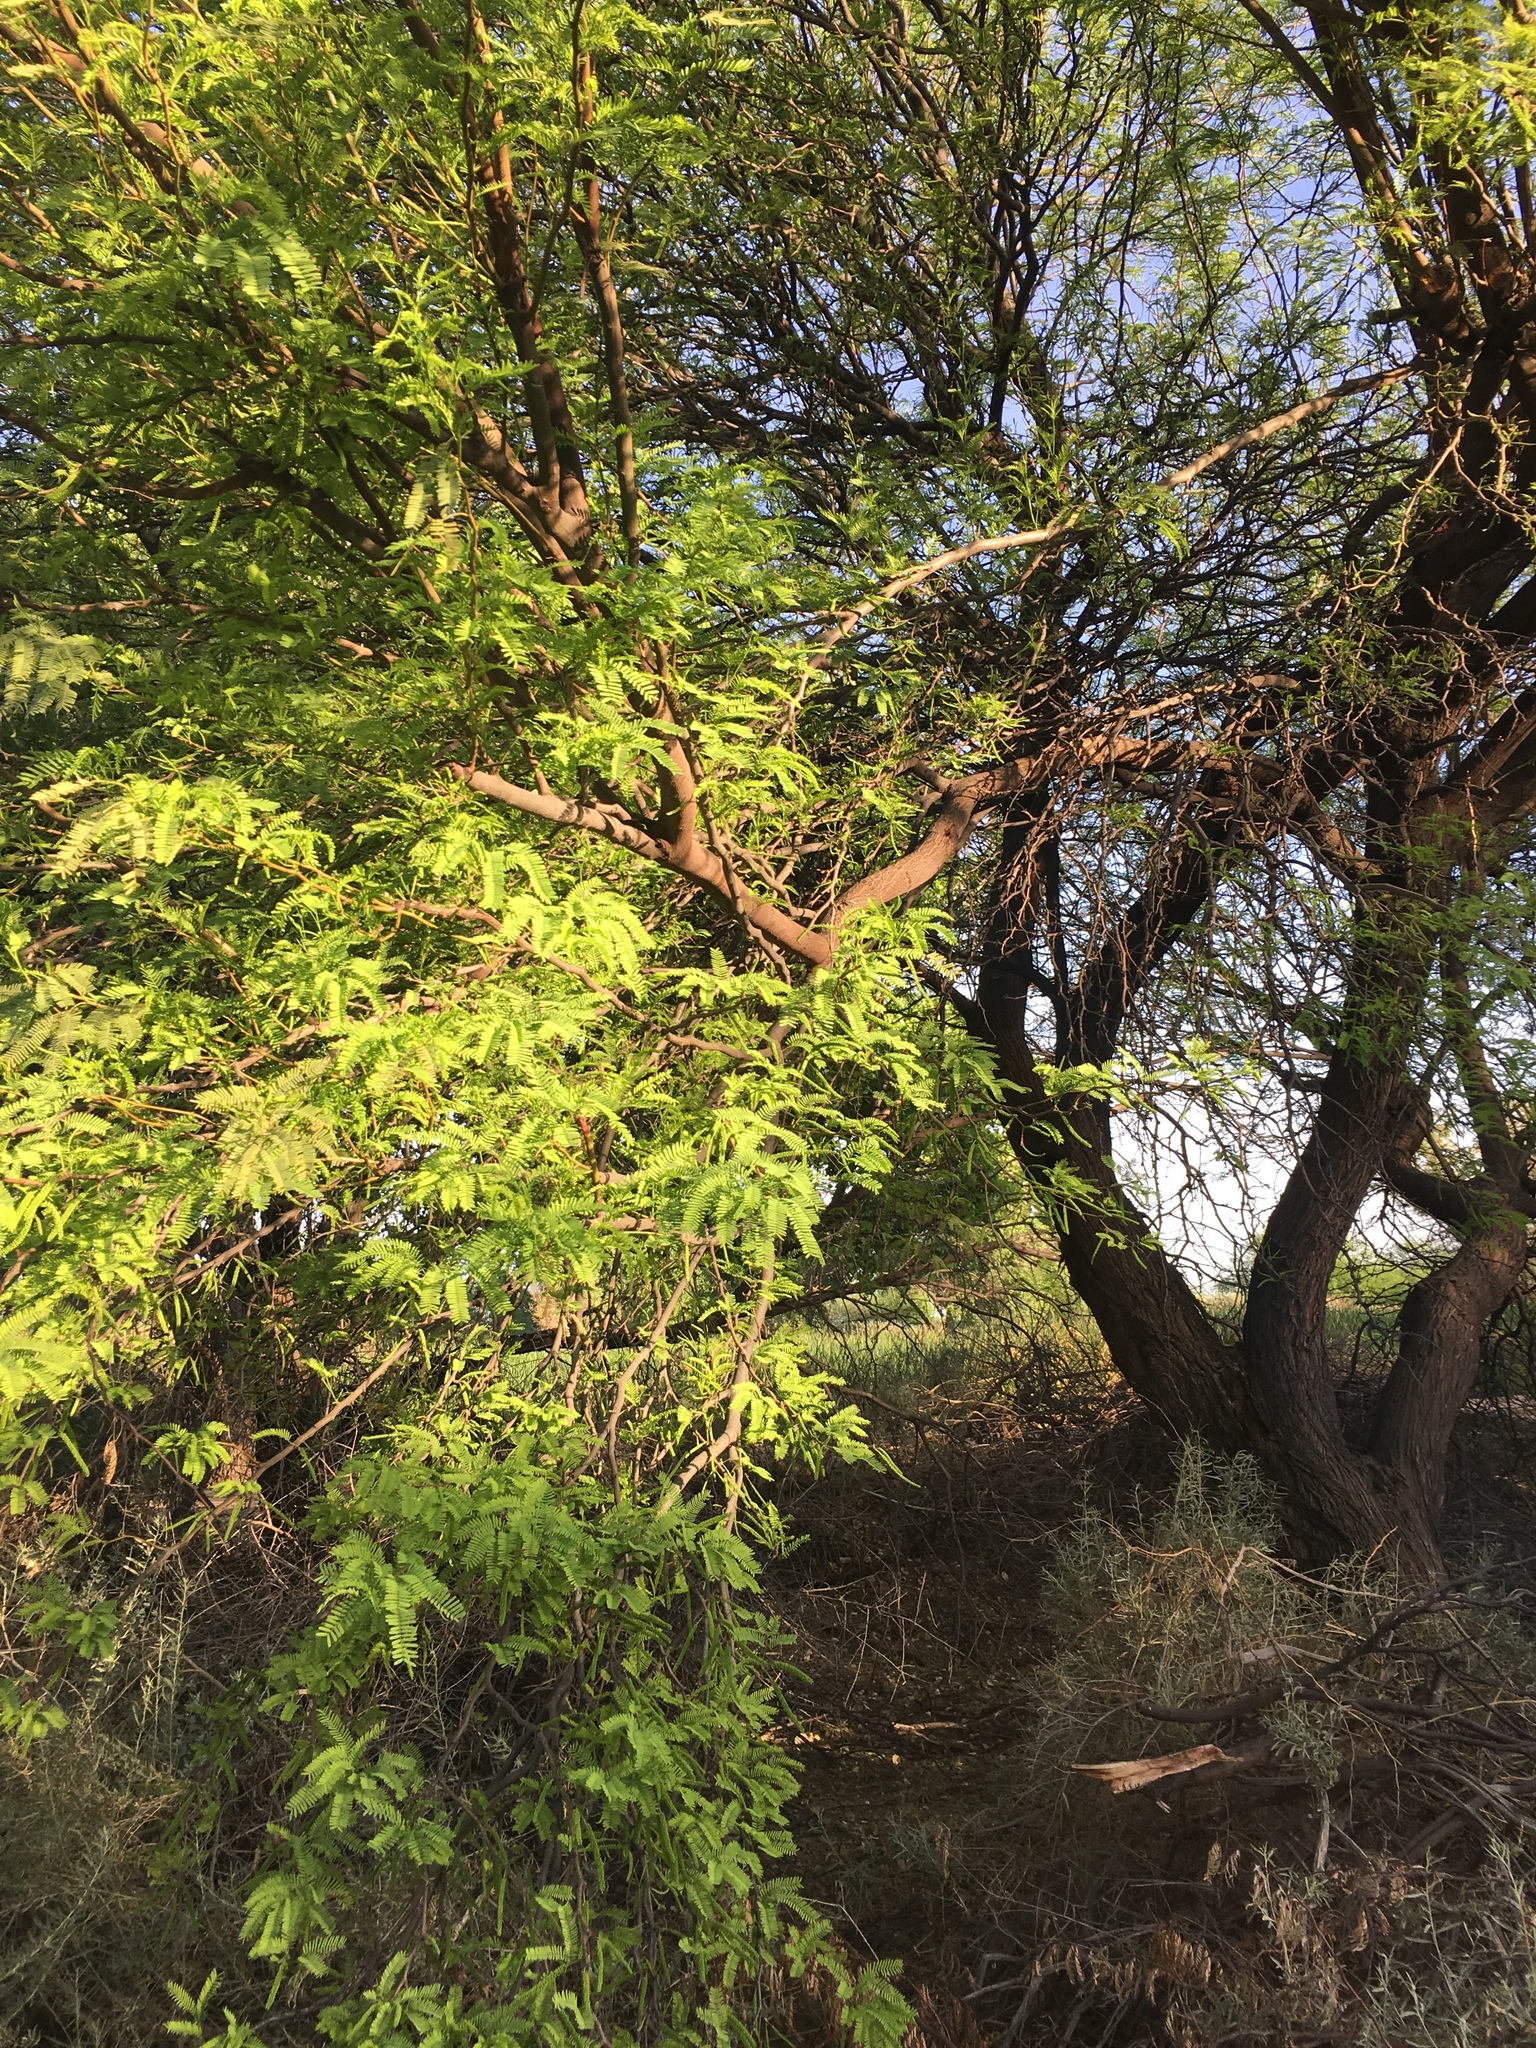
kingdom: Plantae
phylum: Tracheophyta
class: Magnoliopsida
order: Fabales
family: Fabaceae
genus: Prosopis
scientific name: Prosopis velutina
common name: Velvet mesquite
